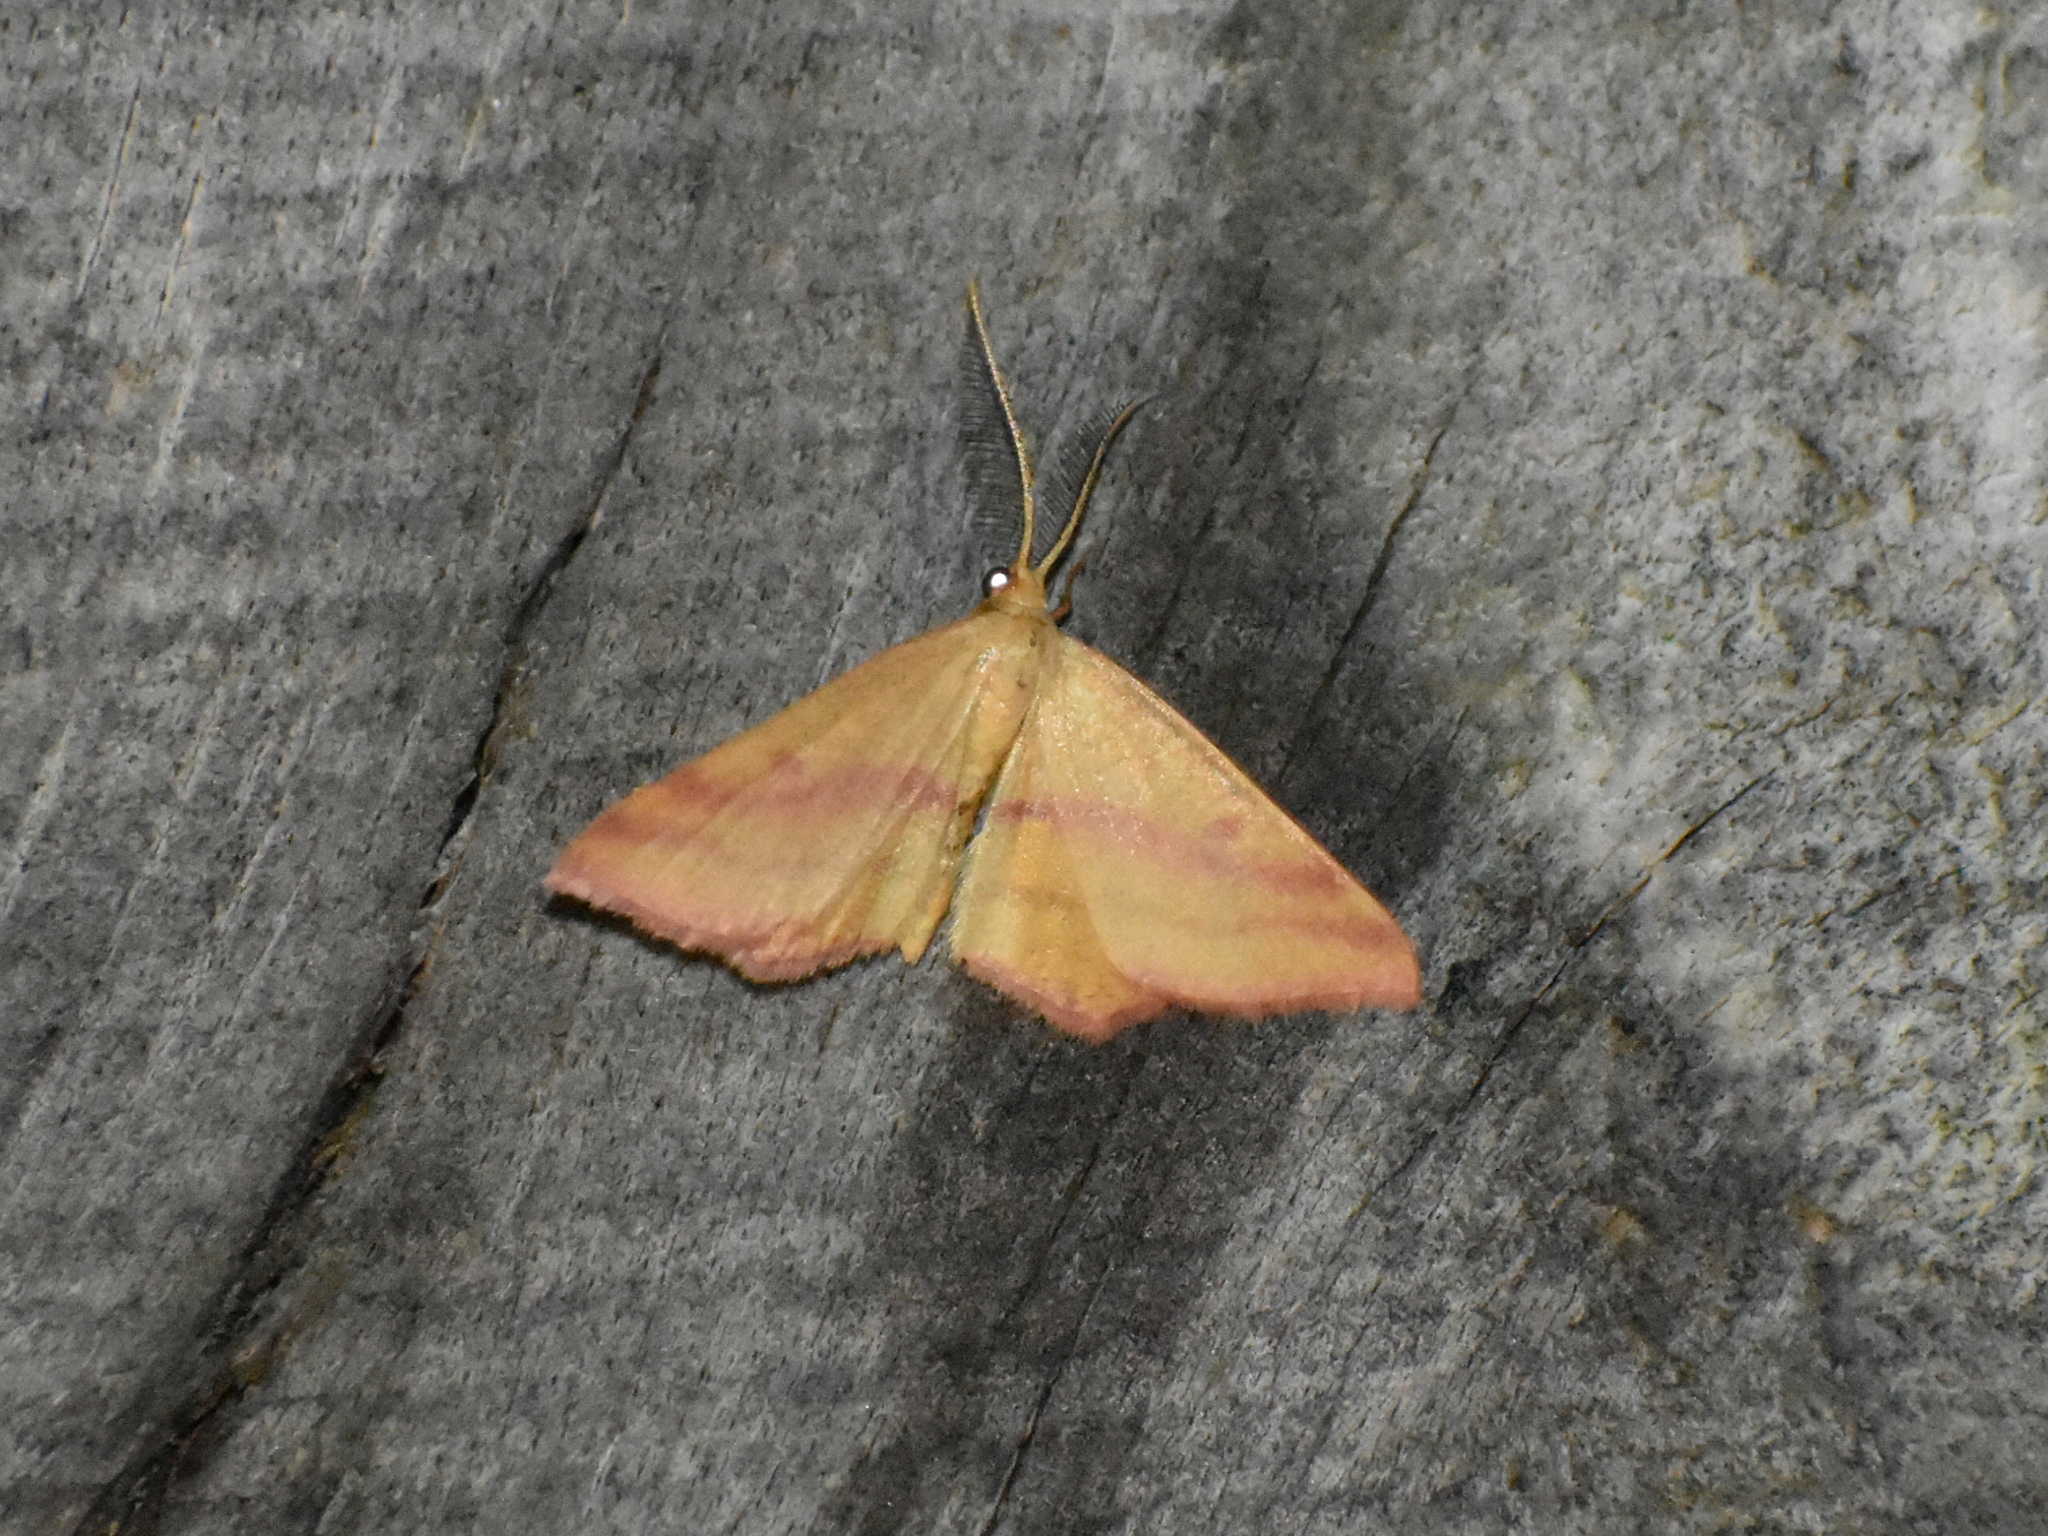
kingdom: Animalia
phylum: Arthropoda
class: Insecta
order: Lepidoptera
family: Geometridae
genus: Haematopis
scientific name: Haematopis grataria
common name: Chickweed geometer
